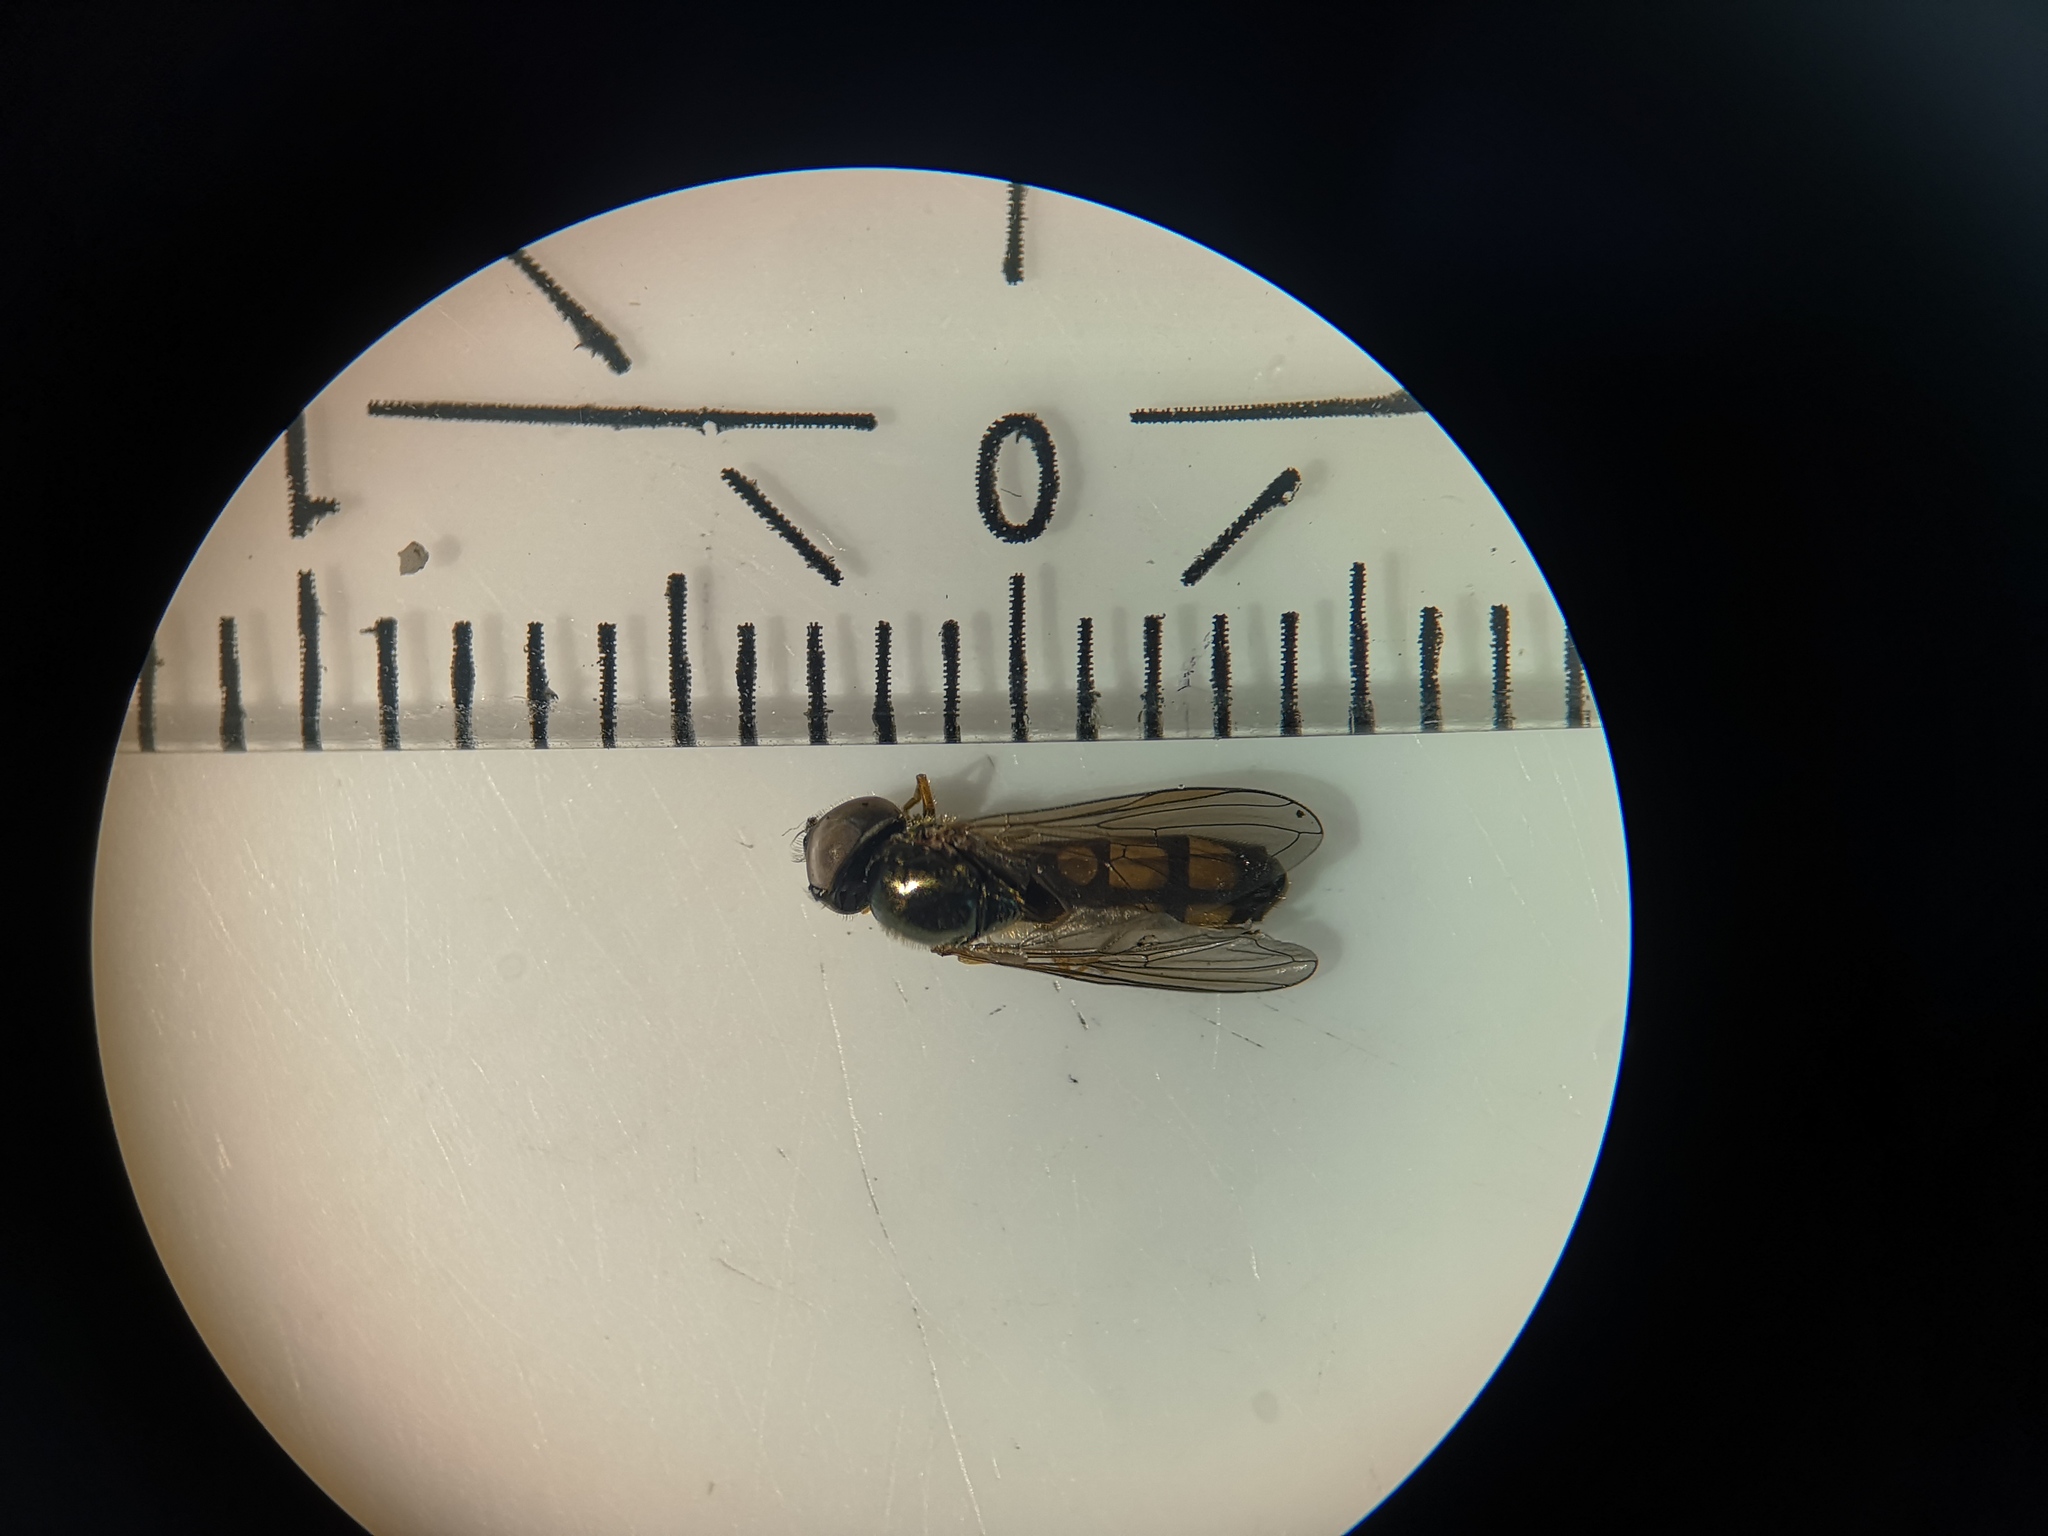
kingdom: Animalia
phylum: Arthropoda
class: Insecta
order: Diptera
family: Syrphidae
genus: Melanostoma
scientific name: Melanostoma mellina
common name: Hover fly
